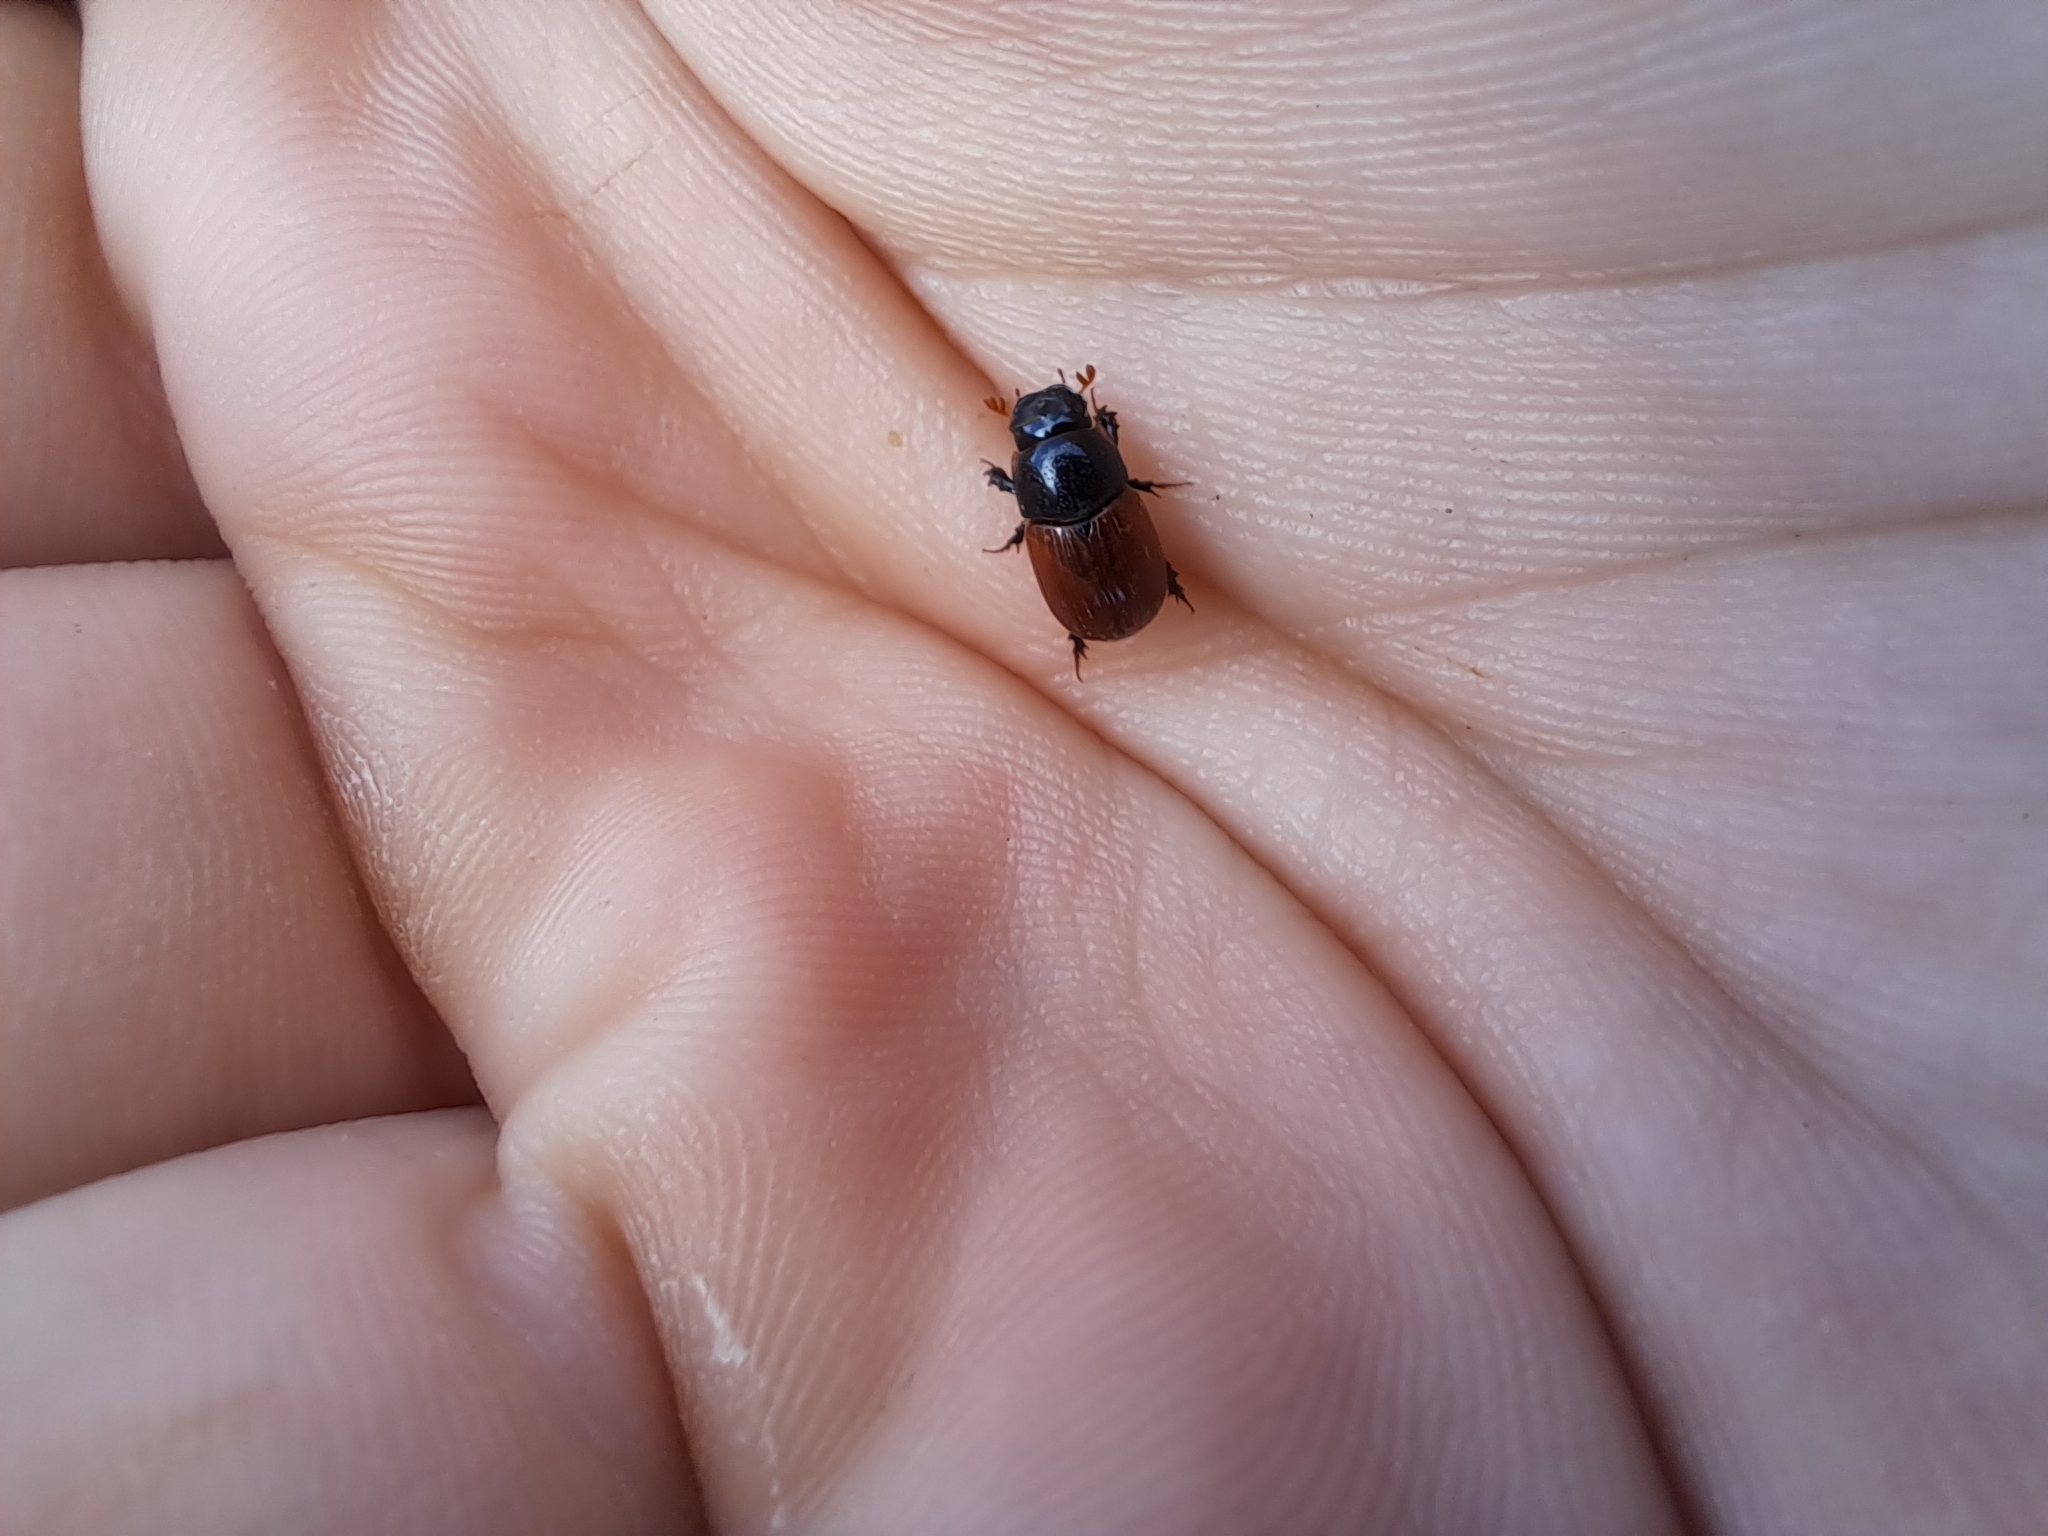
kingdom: Animalia
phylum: Arthropoda
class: Insecta
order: Coleoptera
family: Scarabaeidae
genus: Aphodius
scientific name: Aphodius pedellus
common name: Common dung beetle
